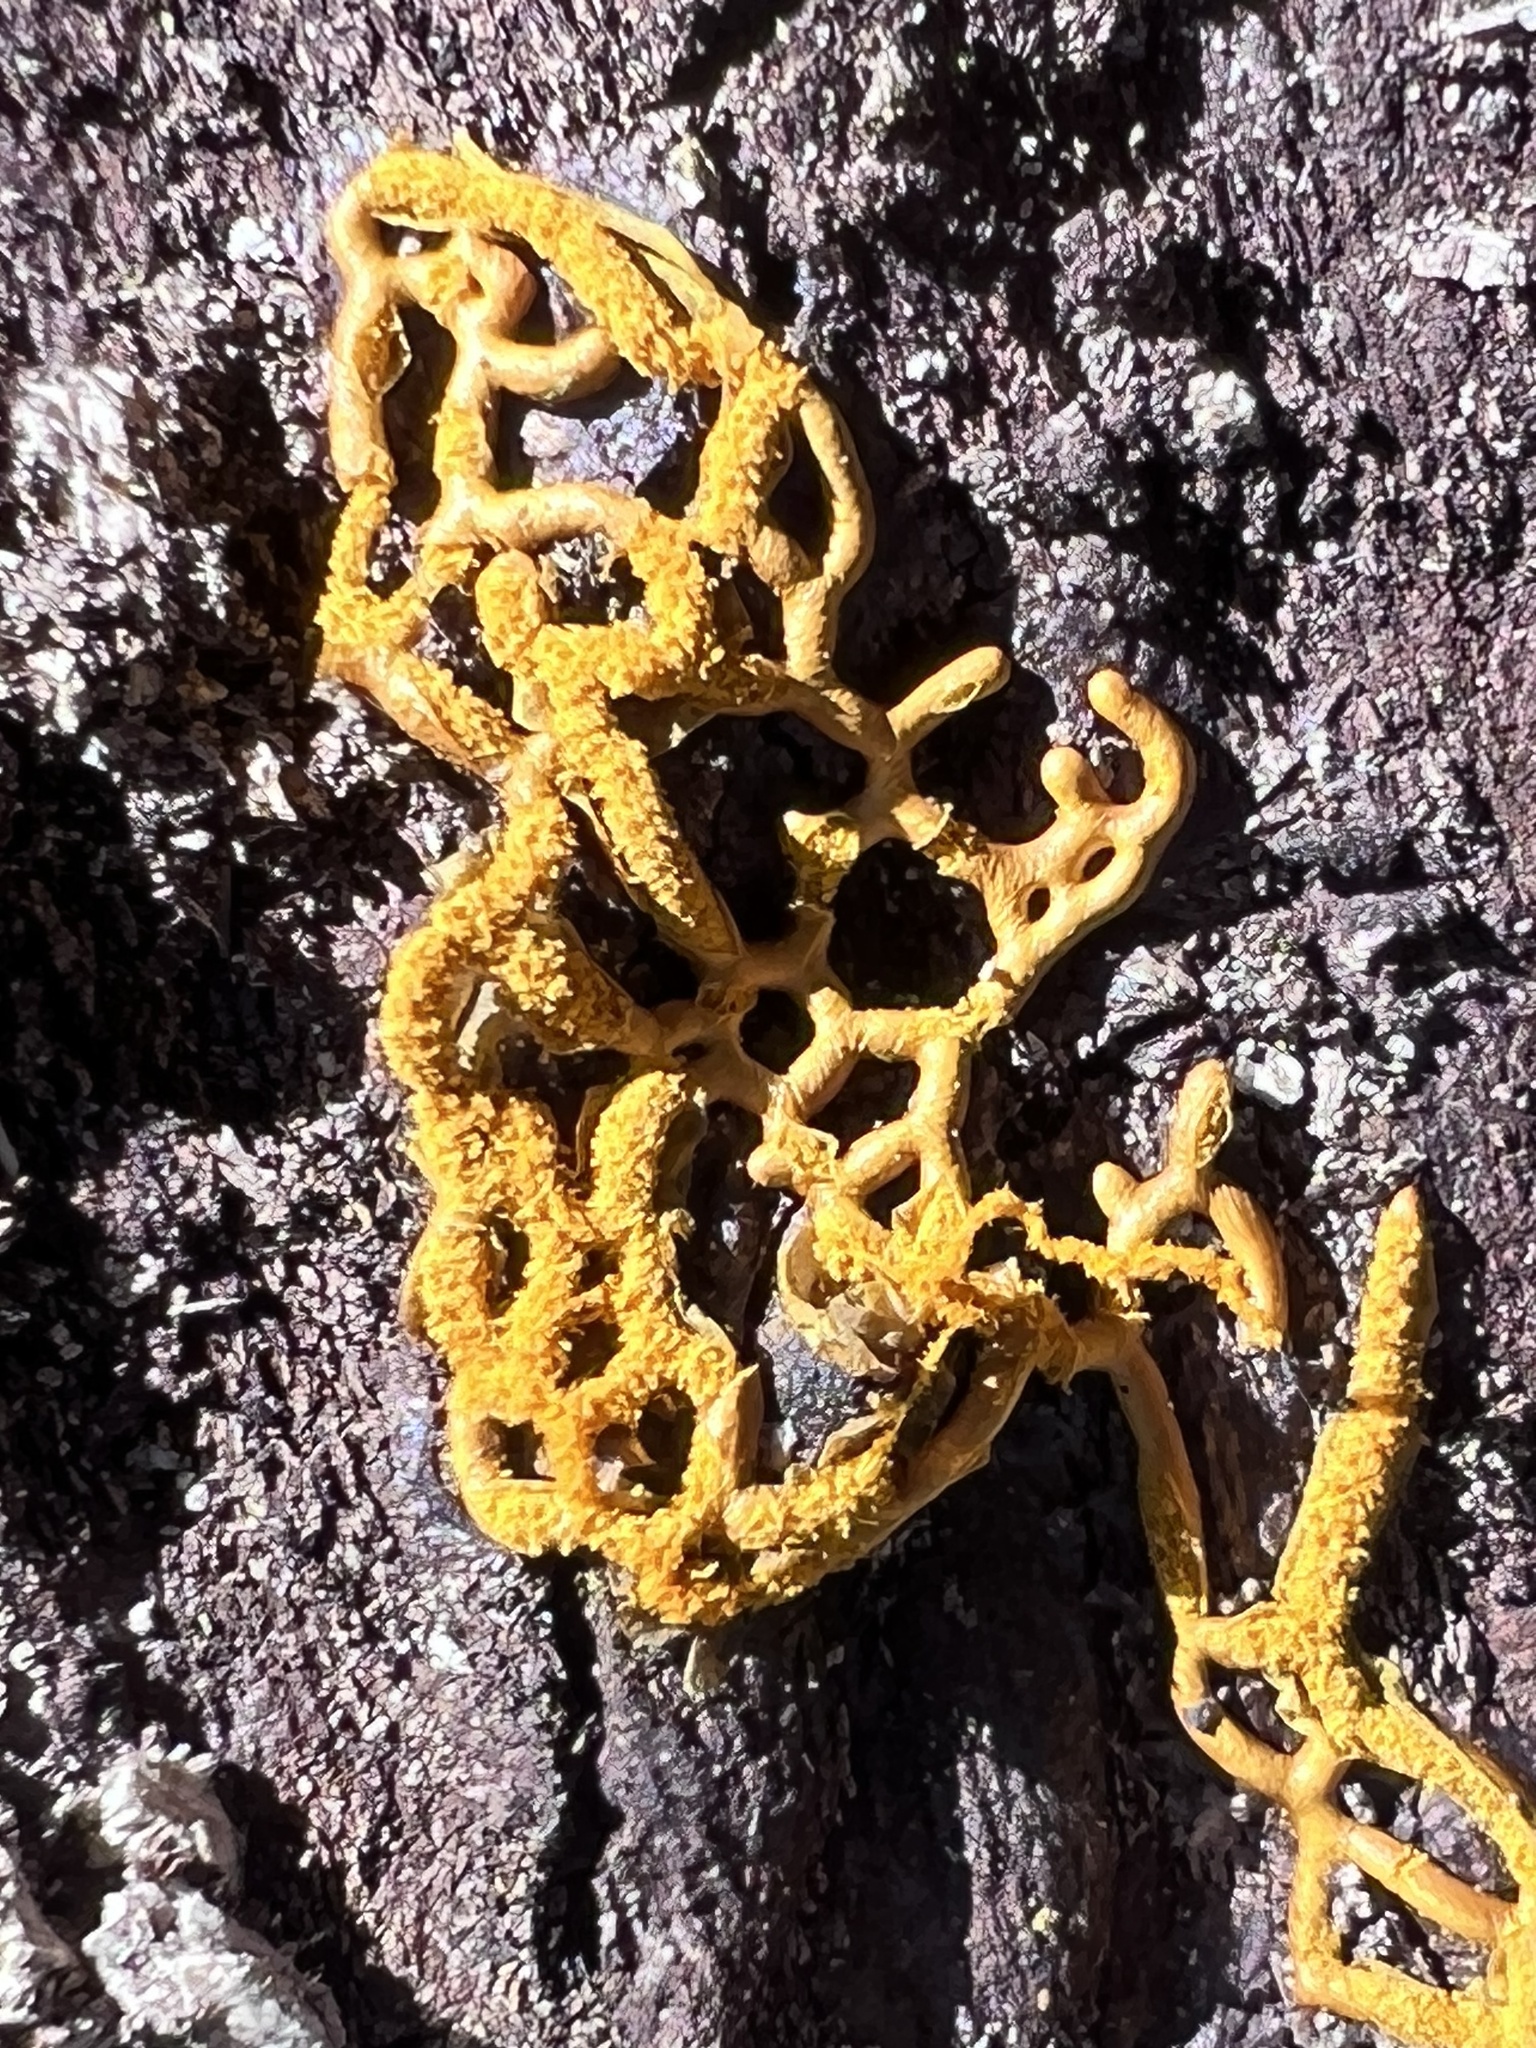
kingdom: Protozoa
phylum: Mycetozoa
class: Myxomycetes
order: Trichiales
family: Arcyriaceae
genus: Hemitrichia
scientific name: Hemitrichia serpula
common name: Pretzel slime mold
